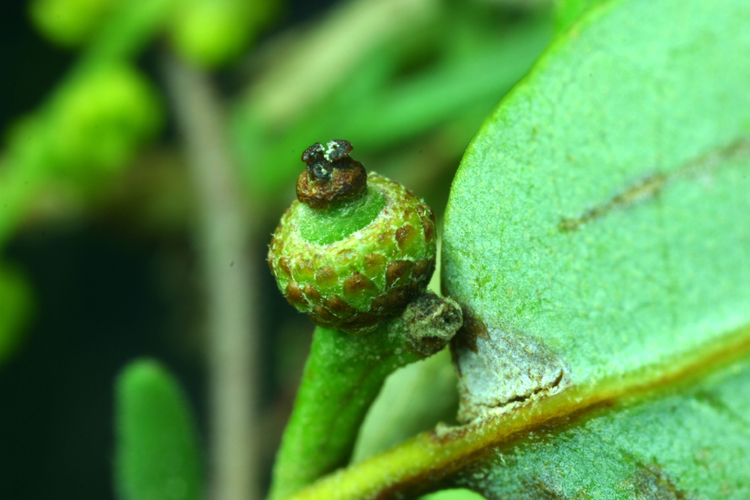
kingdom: Plantae
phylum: Tracheophyta
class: Magnoliopsida
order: Fagales
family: Fagaceae
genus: Quercus
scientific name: Quercus vacciniifolia
